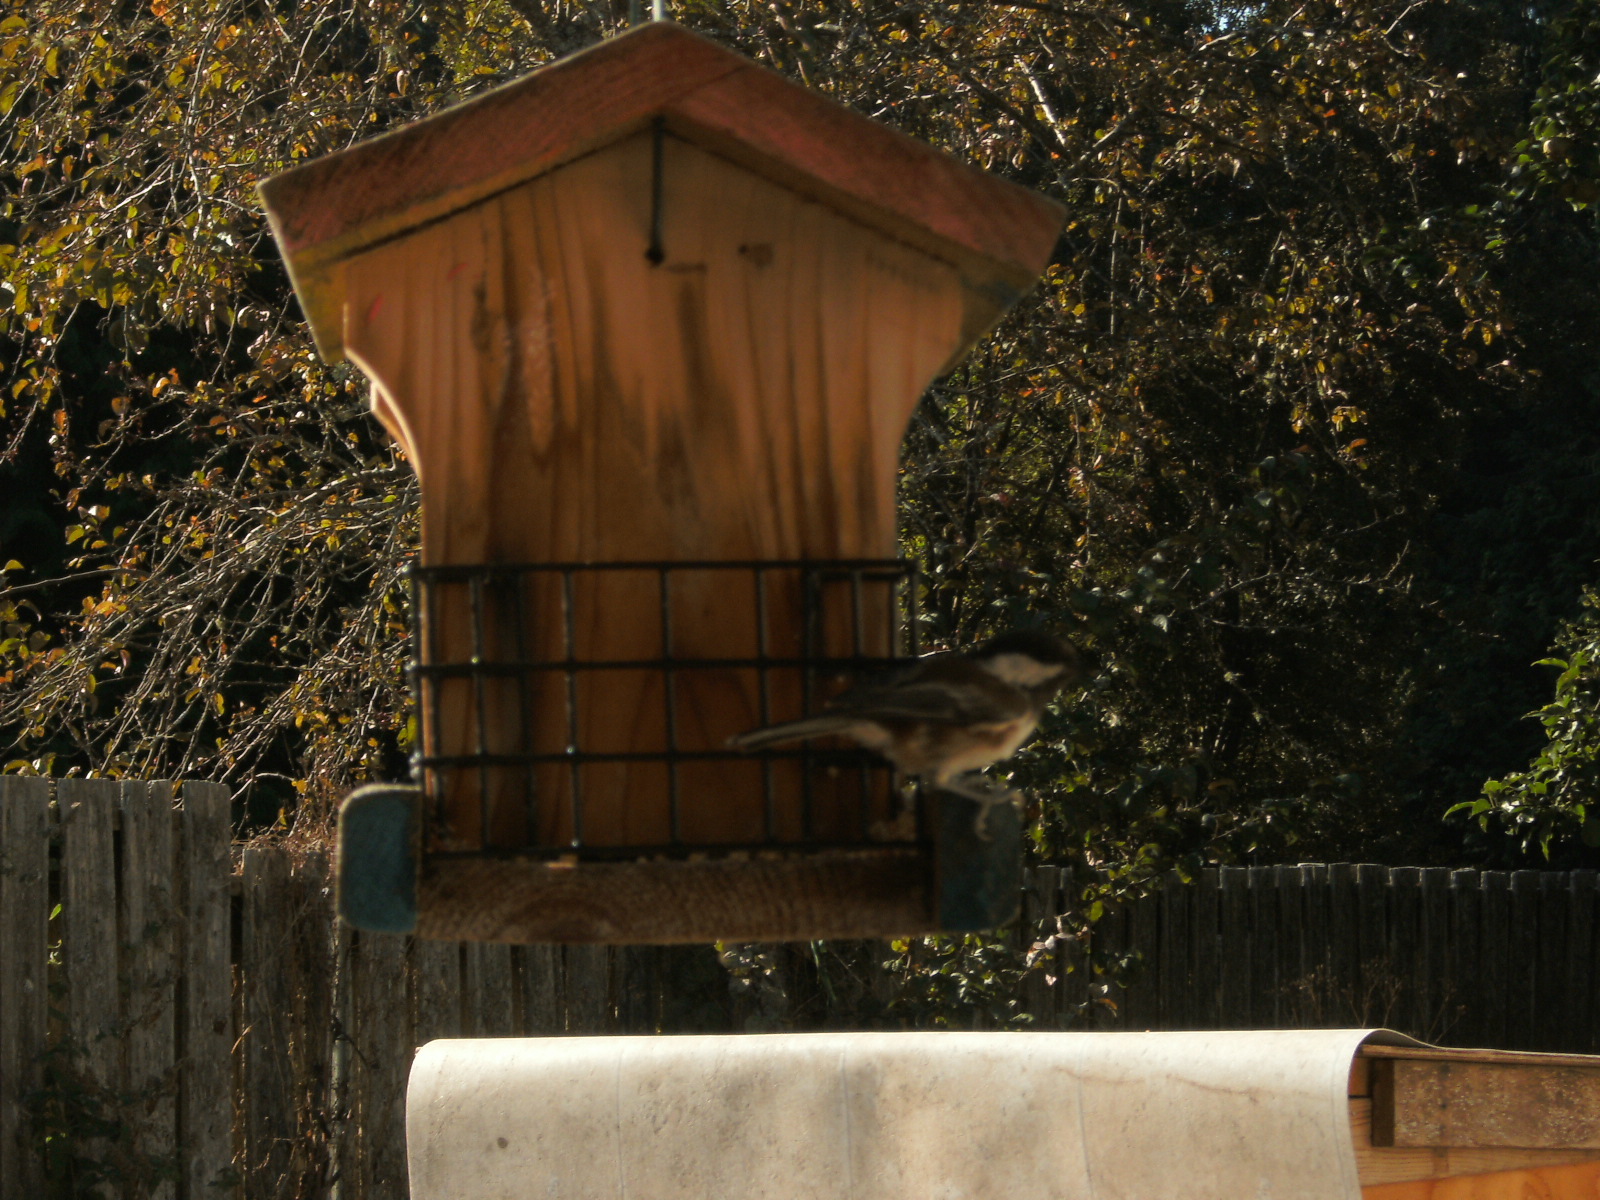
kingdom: Animalia
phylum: Chordata
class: Aves
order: Passeriformes
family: Paridae
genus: Poecile
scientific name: Poecile rufescens
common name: Chestnut-backed chickadee
